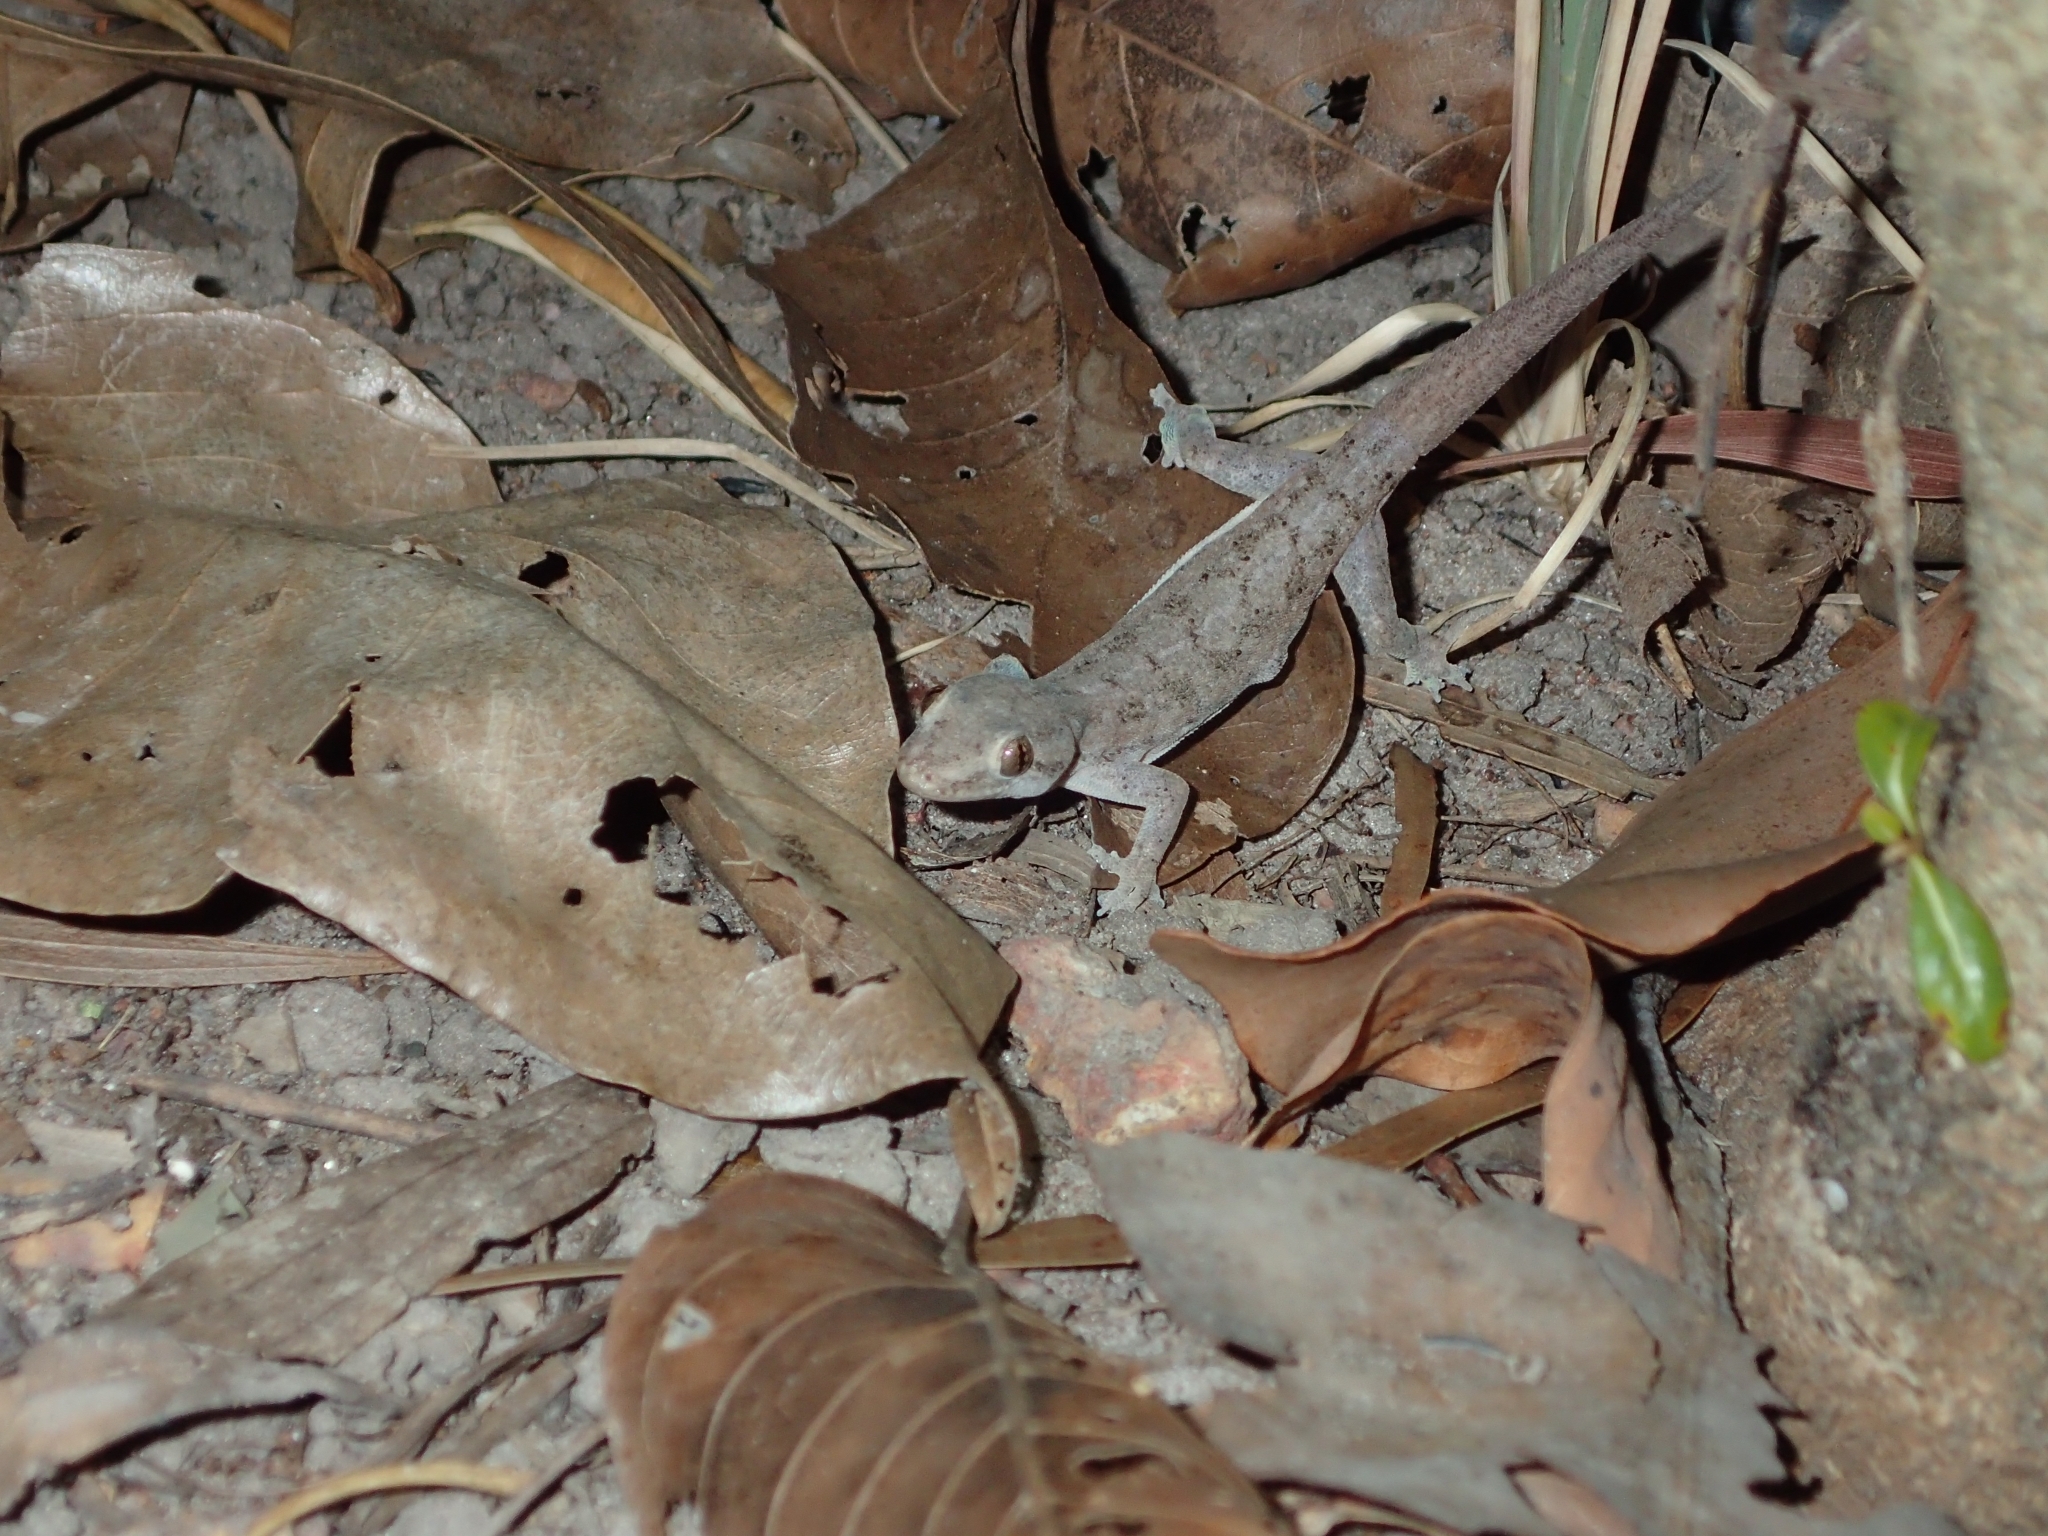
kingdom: Animalia
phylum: Chordata
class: Squamata
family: Gekkonidae
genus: Gehyra
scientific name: Gehyra australis
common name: House gecko
